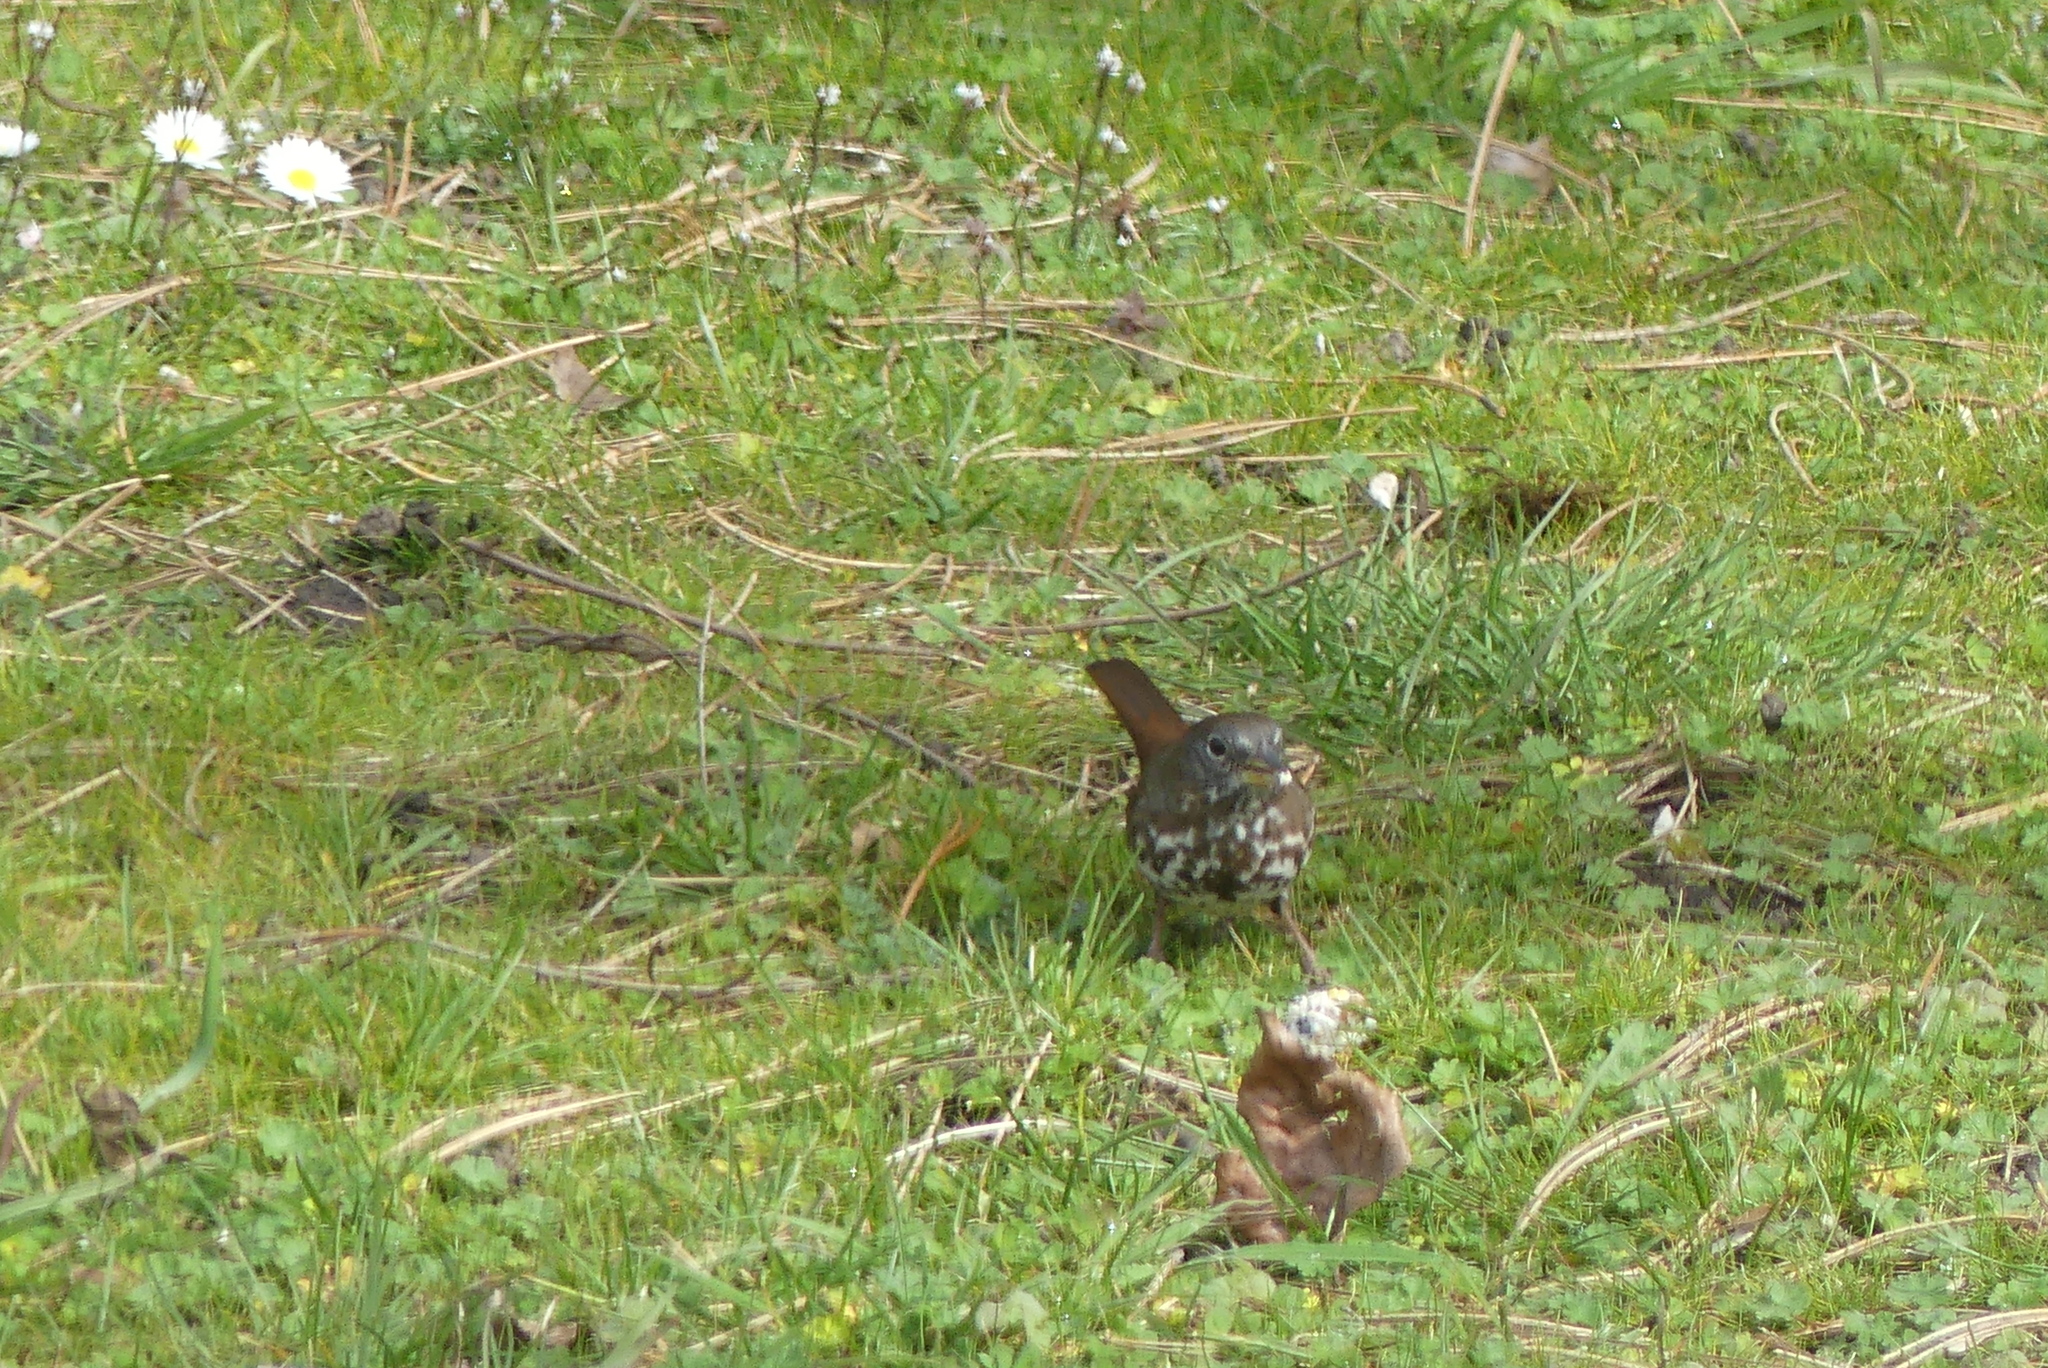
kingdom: Animalia
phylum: Chordata
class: Aves
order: Passeriformes
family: Passerellidae
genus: Passerella
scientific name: Passerella iliaca
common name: Fox sparrow
